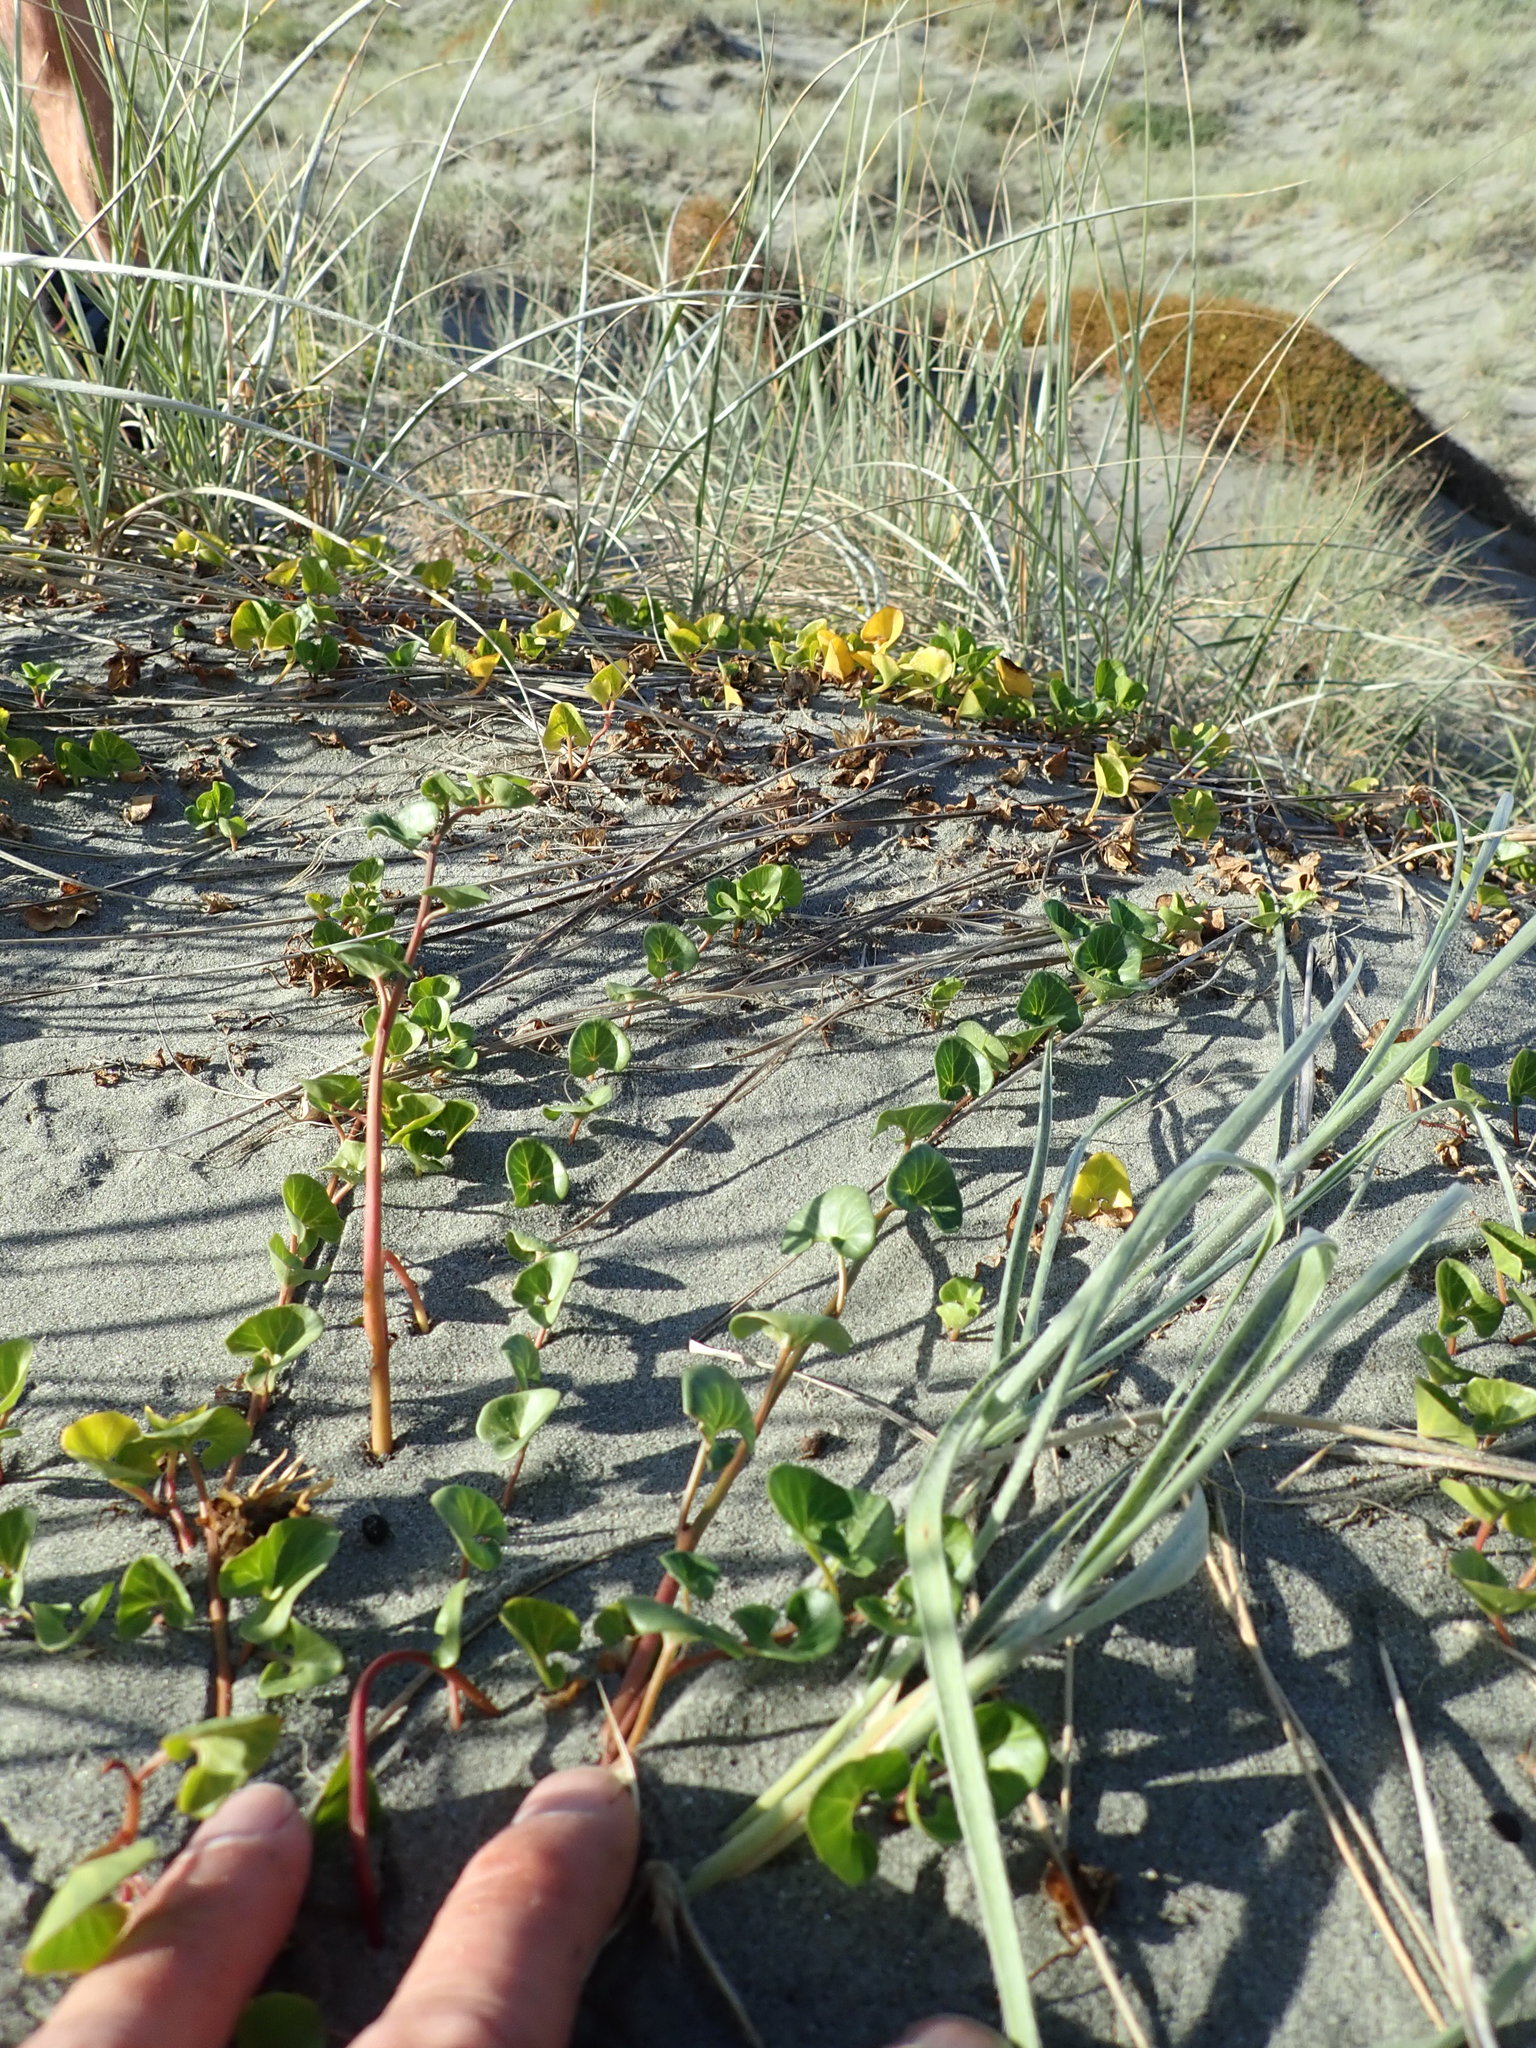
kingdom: Plantae
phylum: Tracheophyta
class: Magnoliopsida
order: Solanales
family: Convolvulaceae
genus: Calystegia
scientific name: Calystegia soldanella
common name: Sea bindweed
